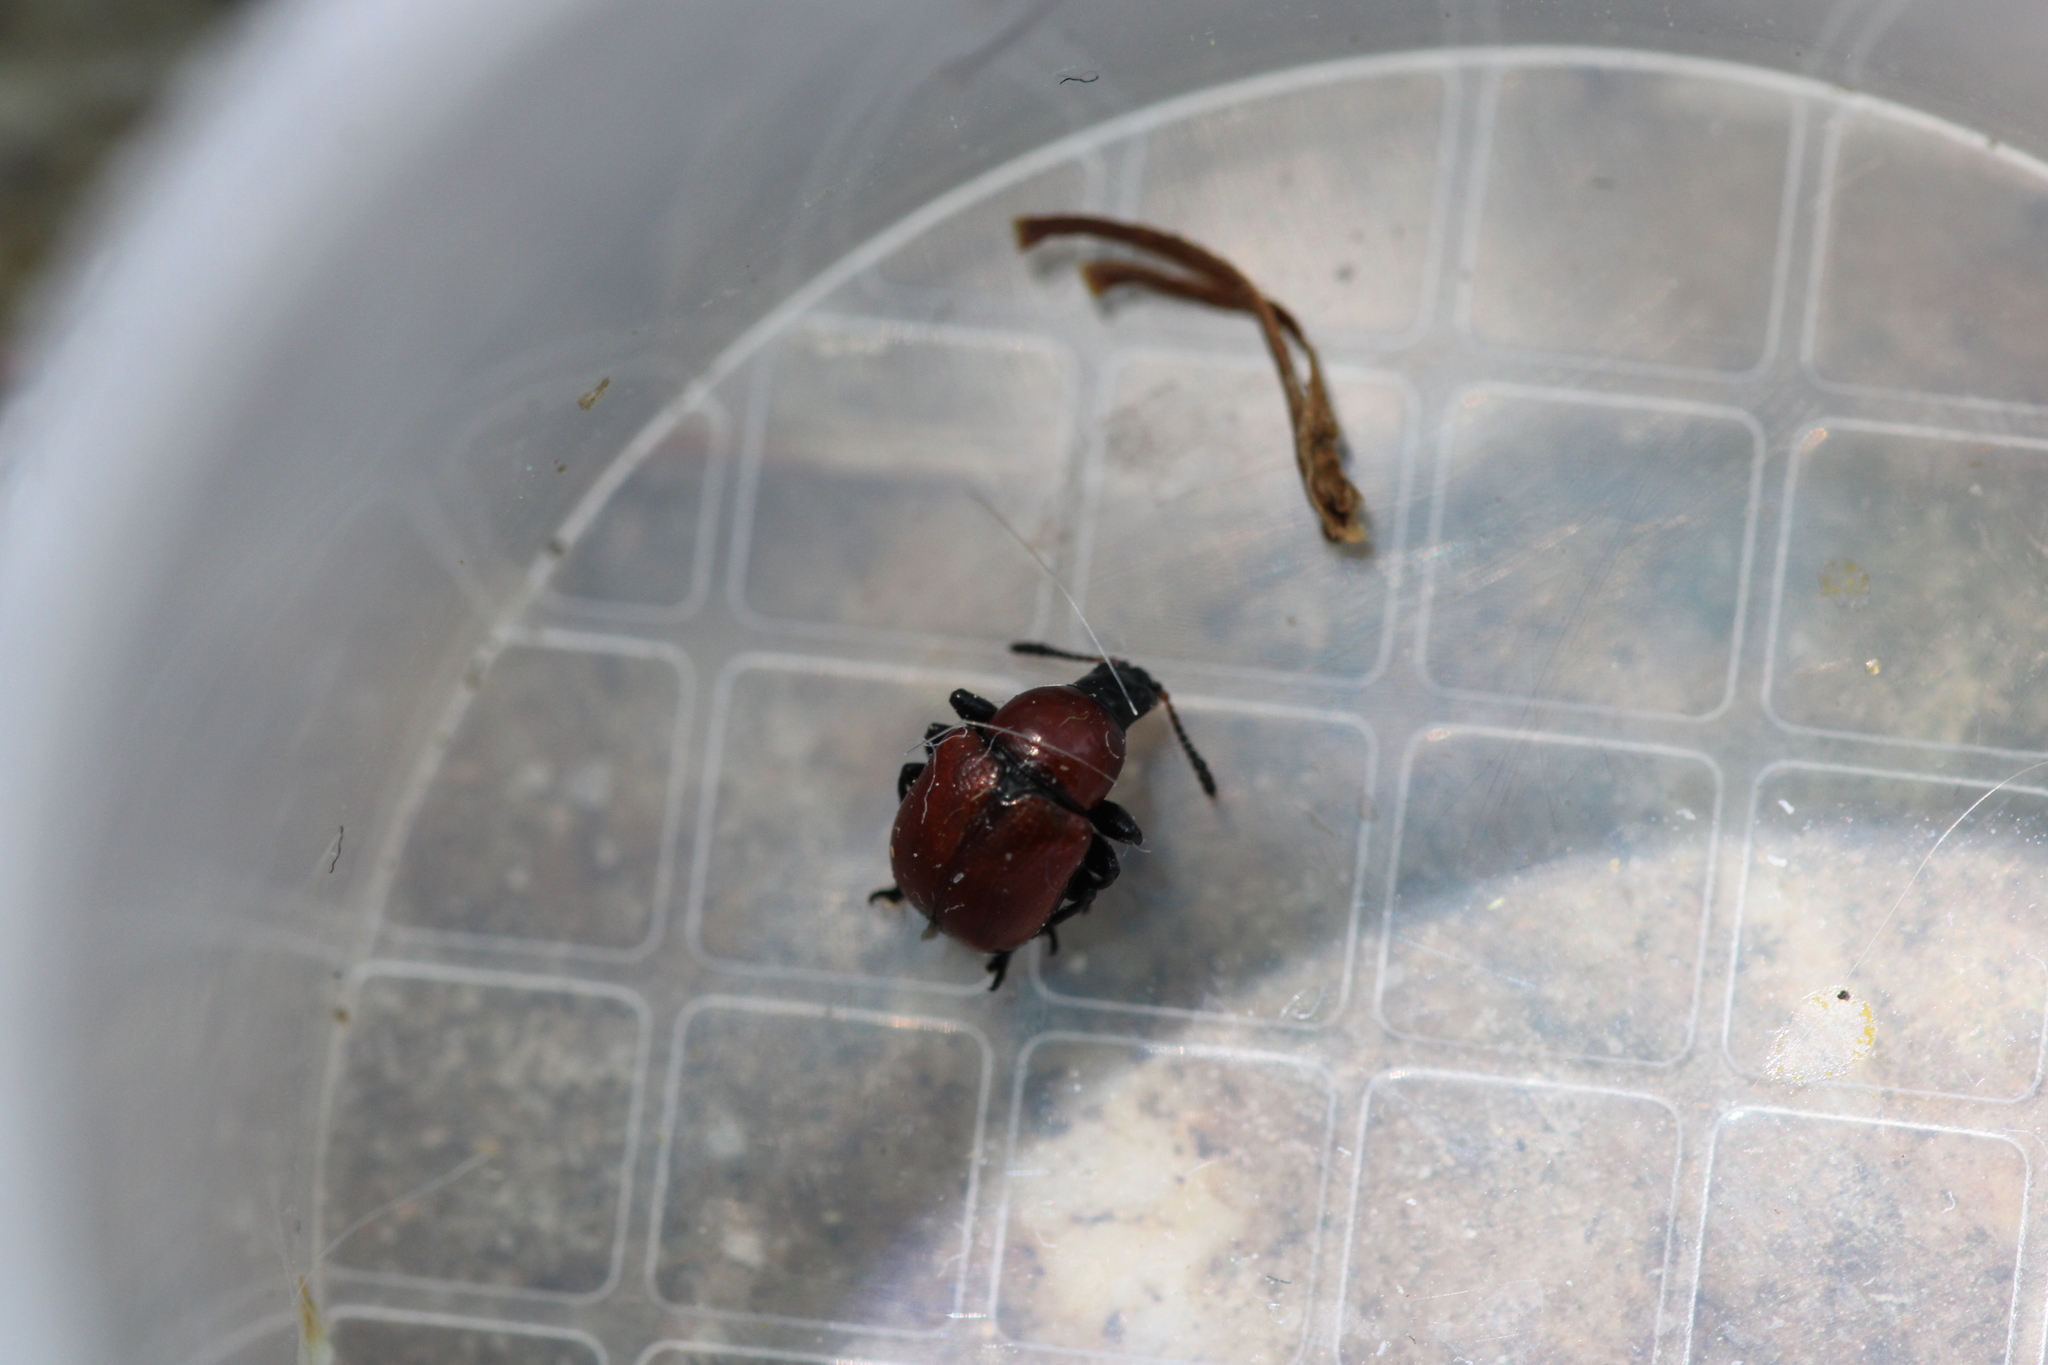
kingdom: Animalia
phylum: Arthropoda
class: Insecta
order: Coleoptera
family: Attelabidae
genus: Attelabus
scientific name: Attelabus nitens
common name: Oak leaf-roller
